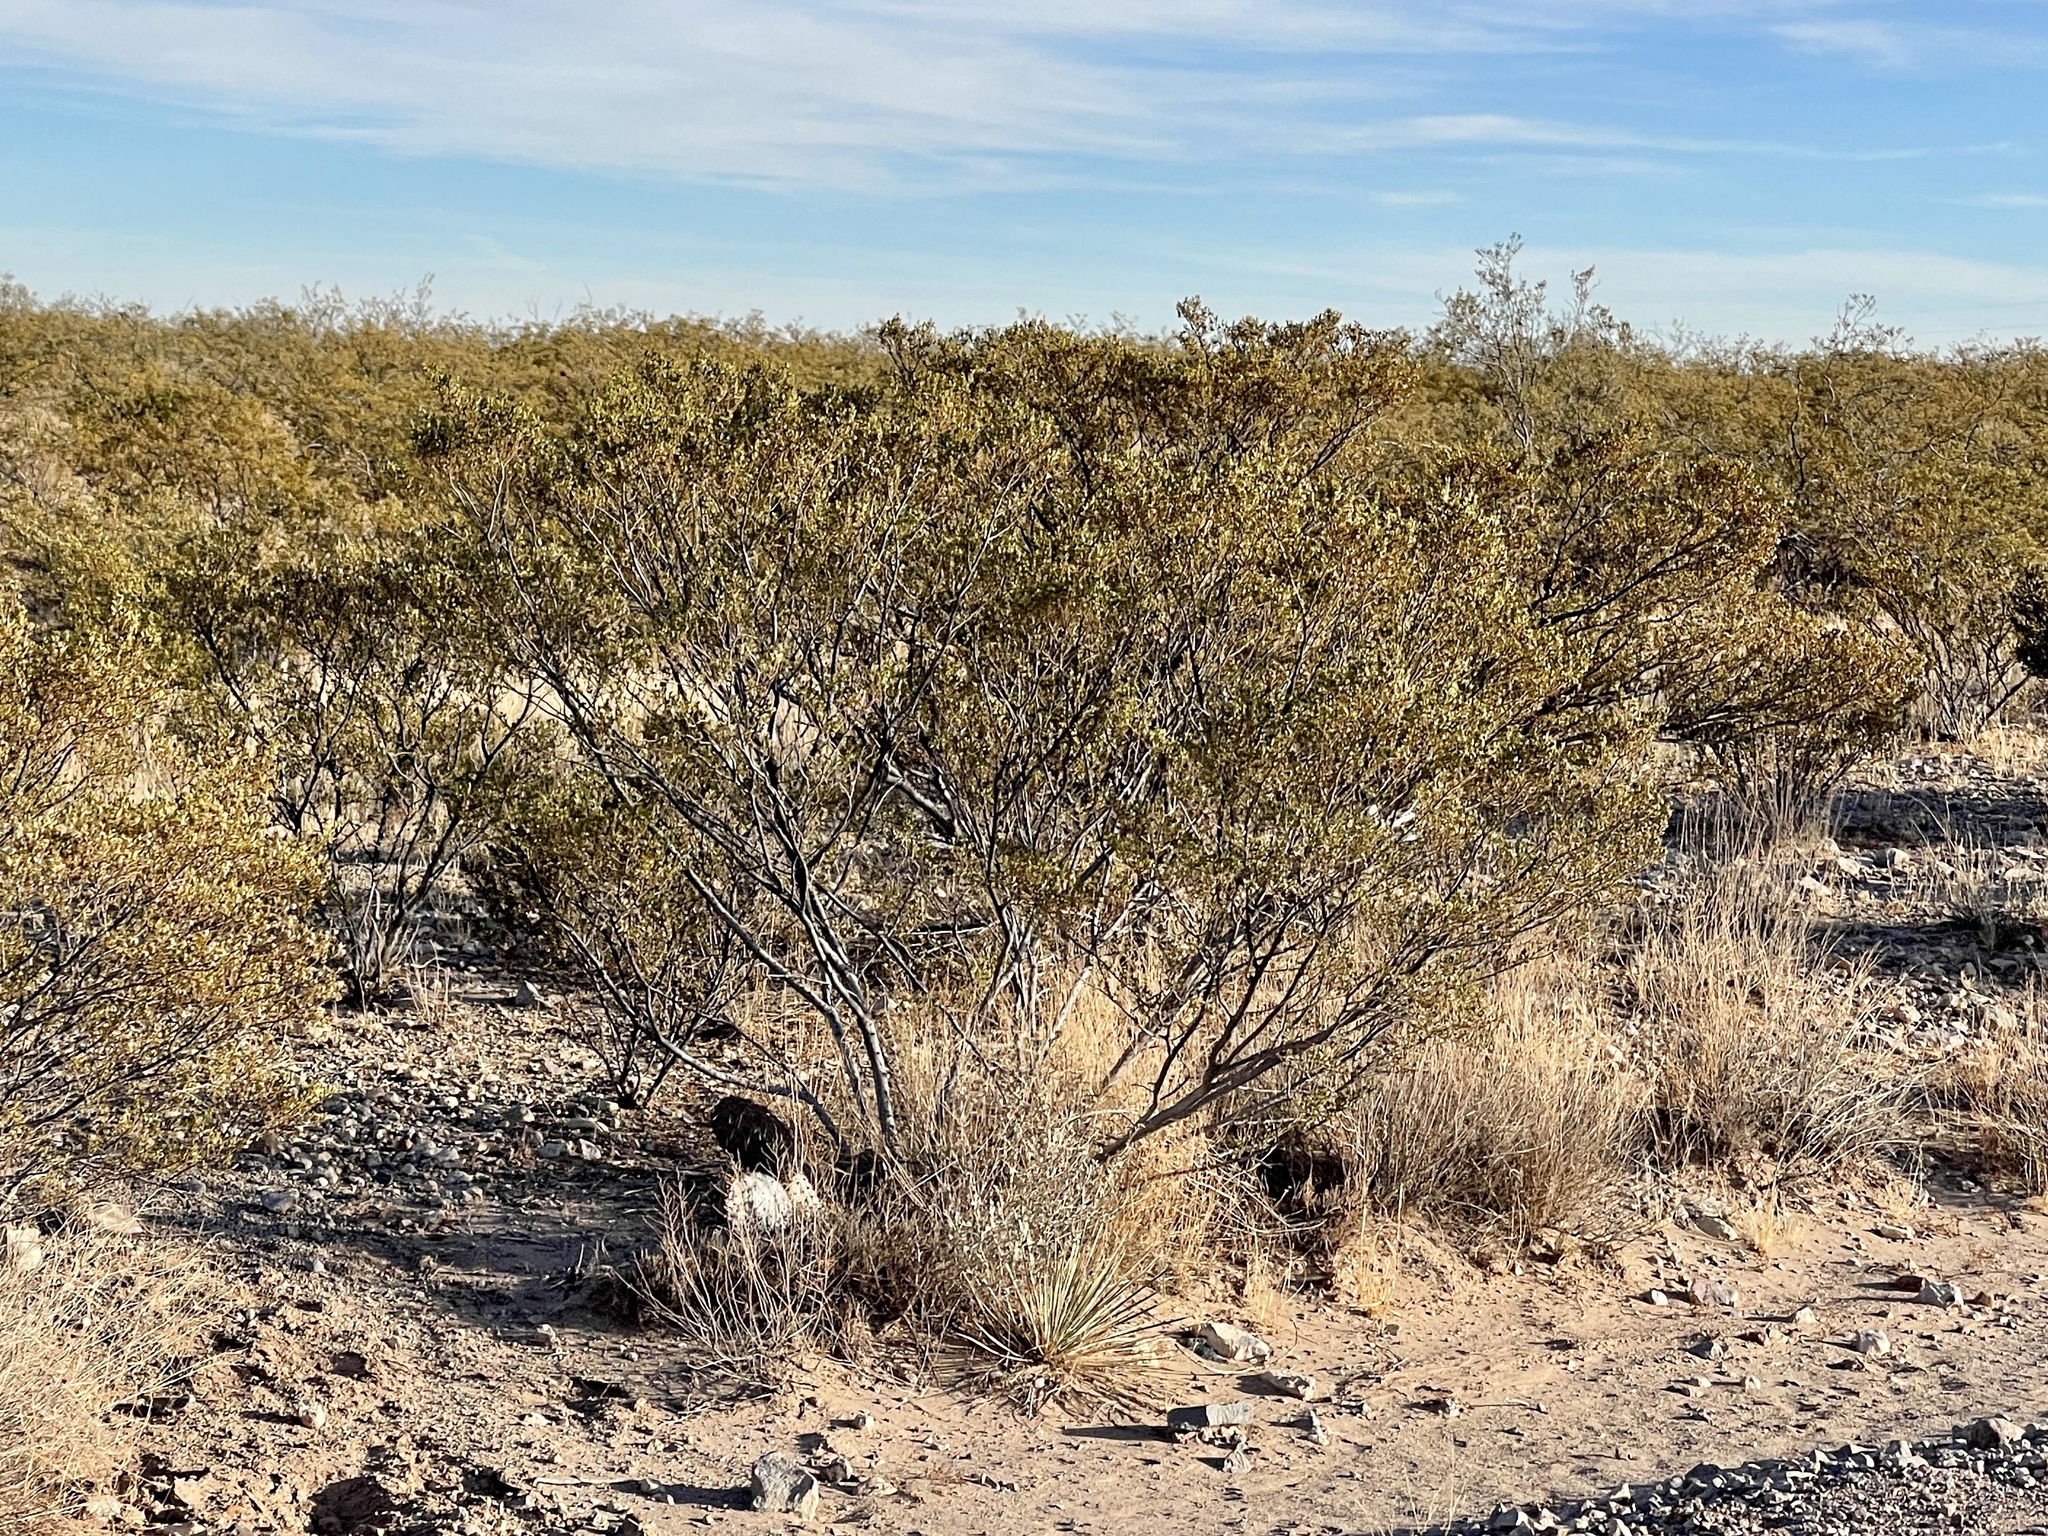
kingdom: Plantae
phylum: Tracheophyta
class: Magnoliopsida
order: Zygophyllales
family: Zygophyllaceae
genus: Larrea
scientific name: Larrea tridentata
